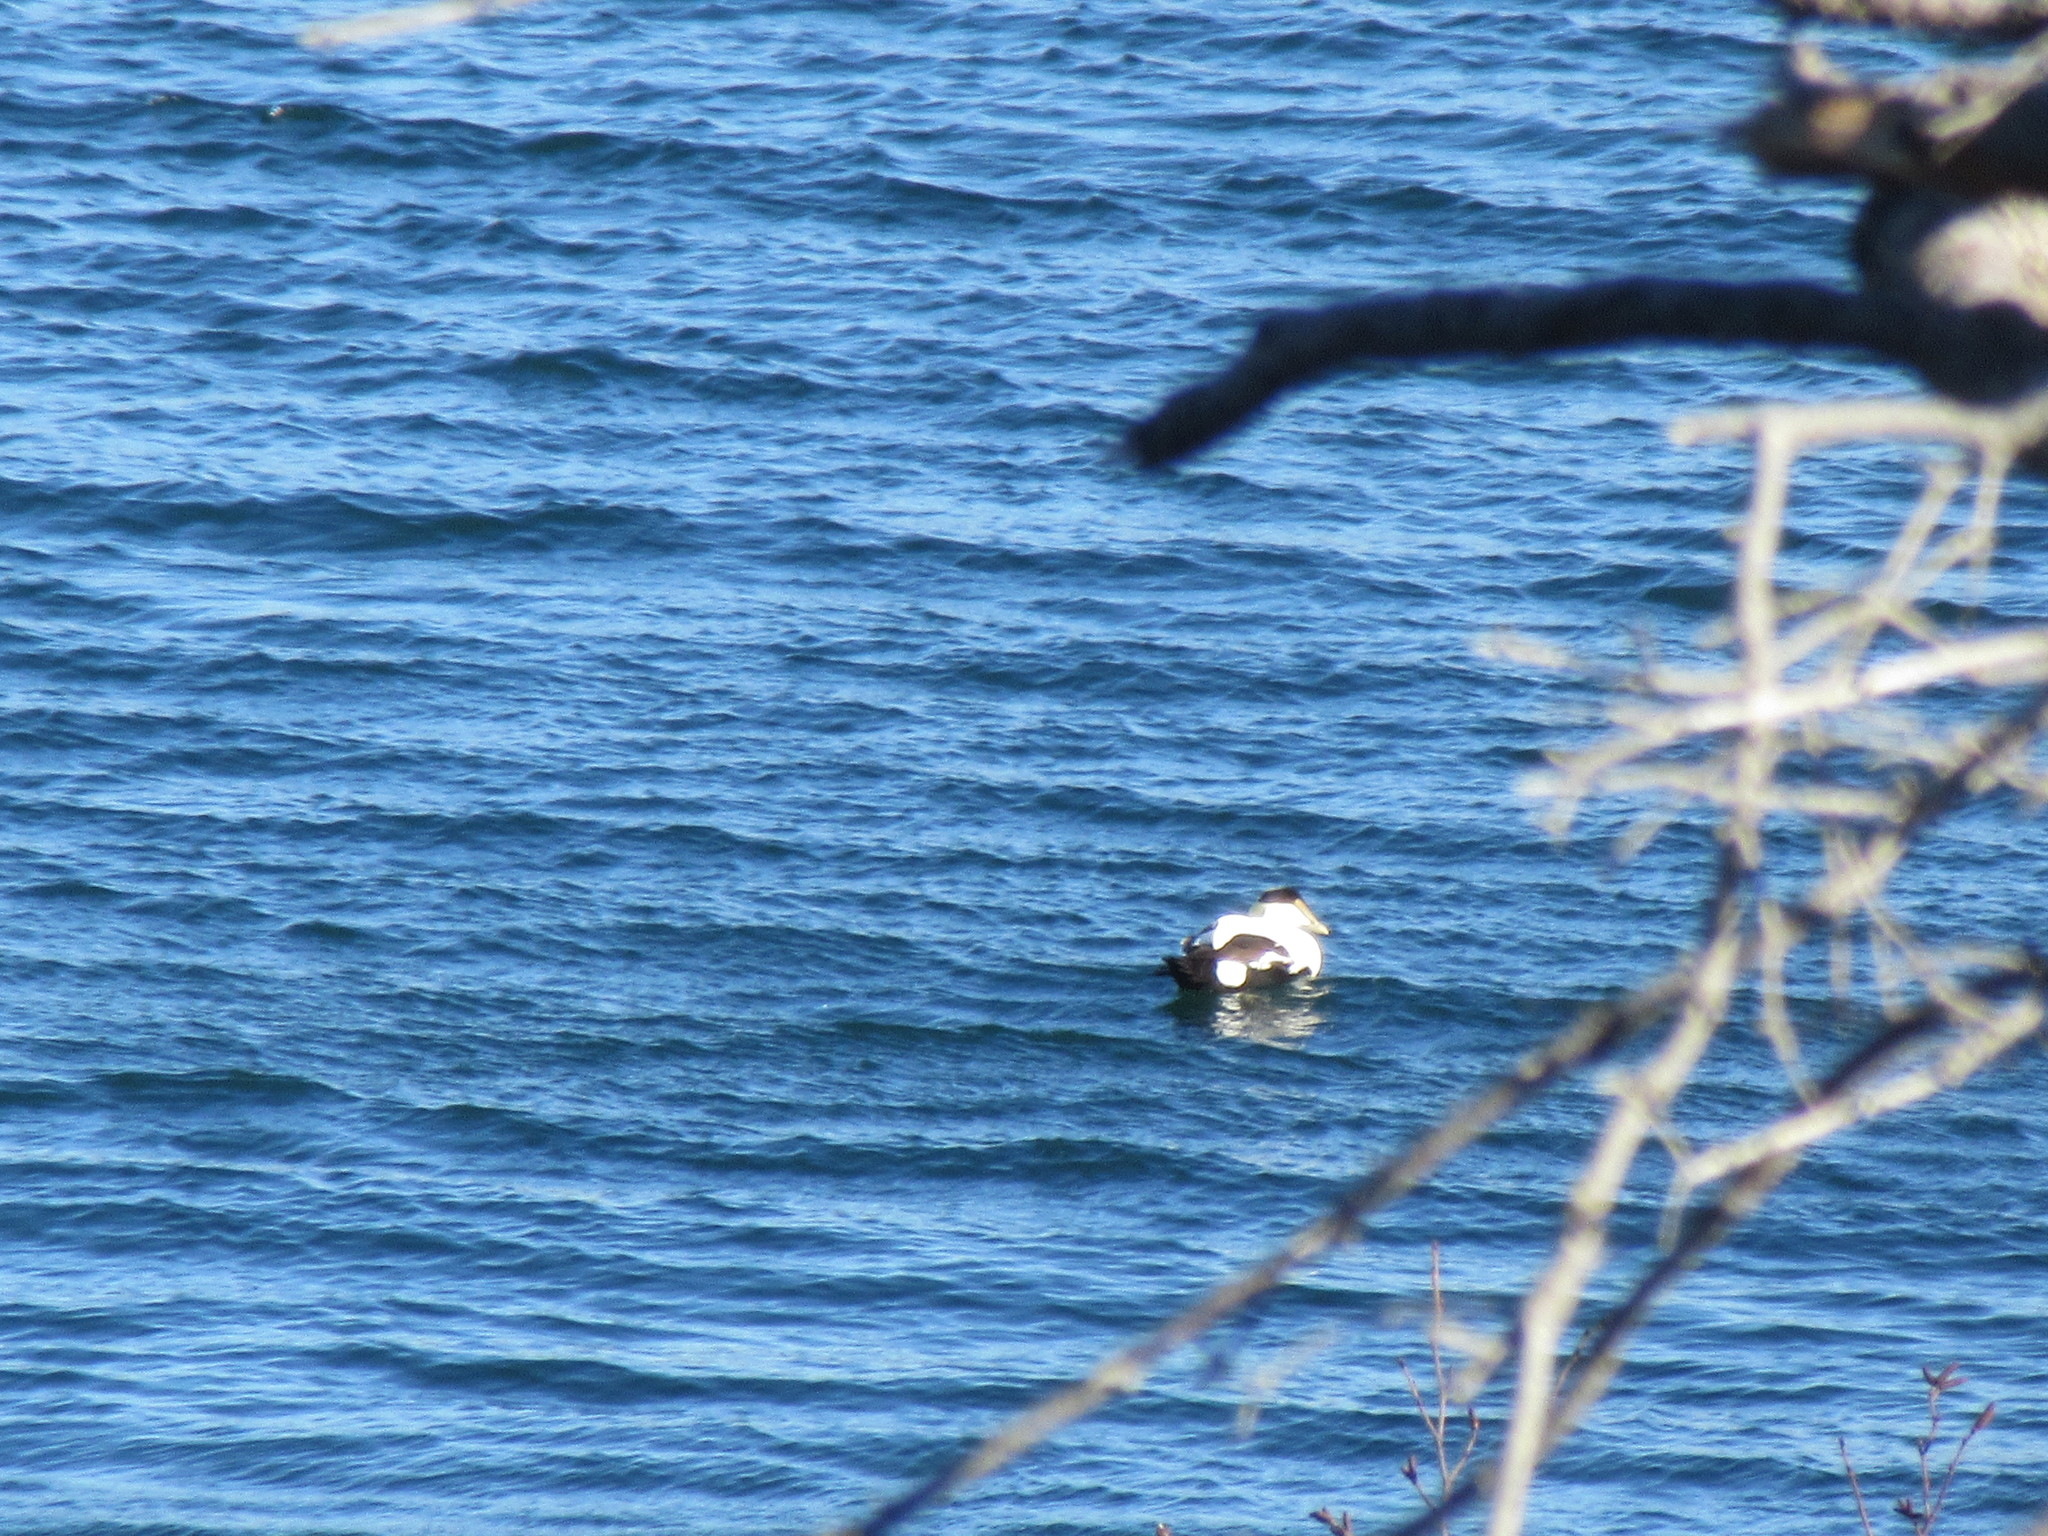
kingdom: Animalia
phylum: Chordata
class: Aves
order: Anseriformes
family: Anatidae
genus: Somateria
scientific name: Somateria mollissima
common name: Common eider
